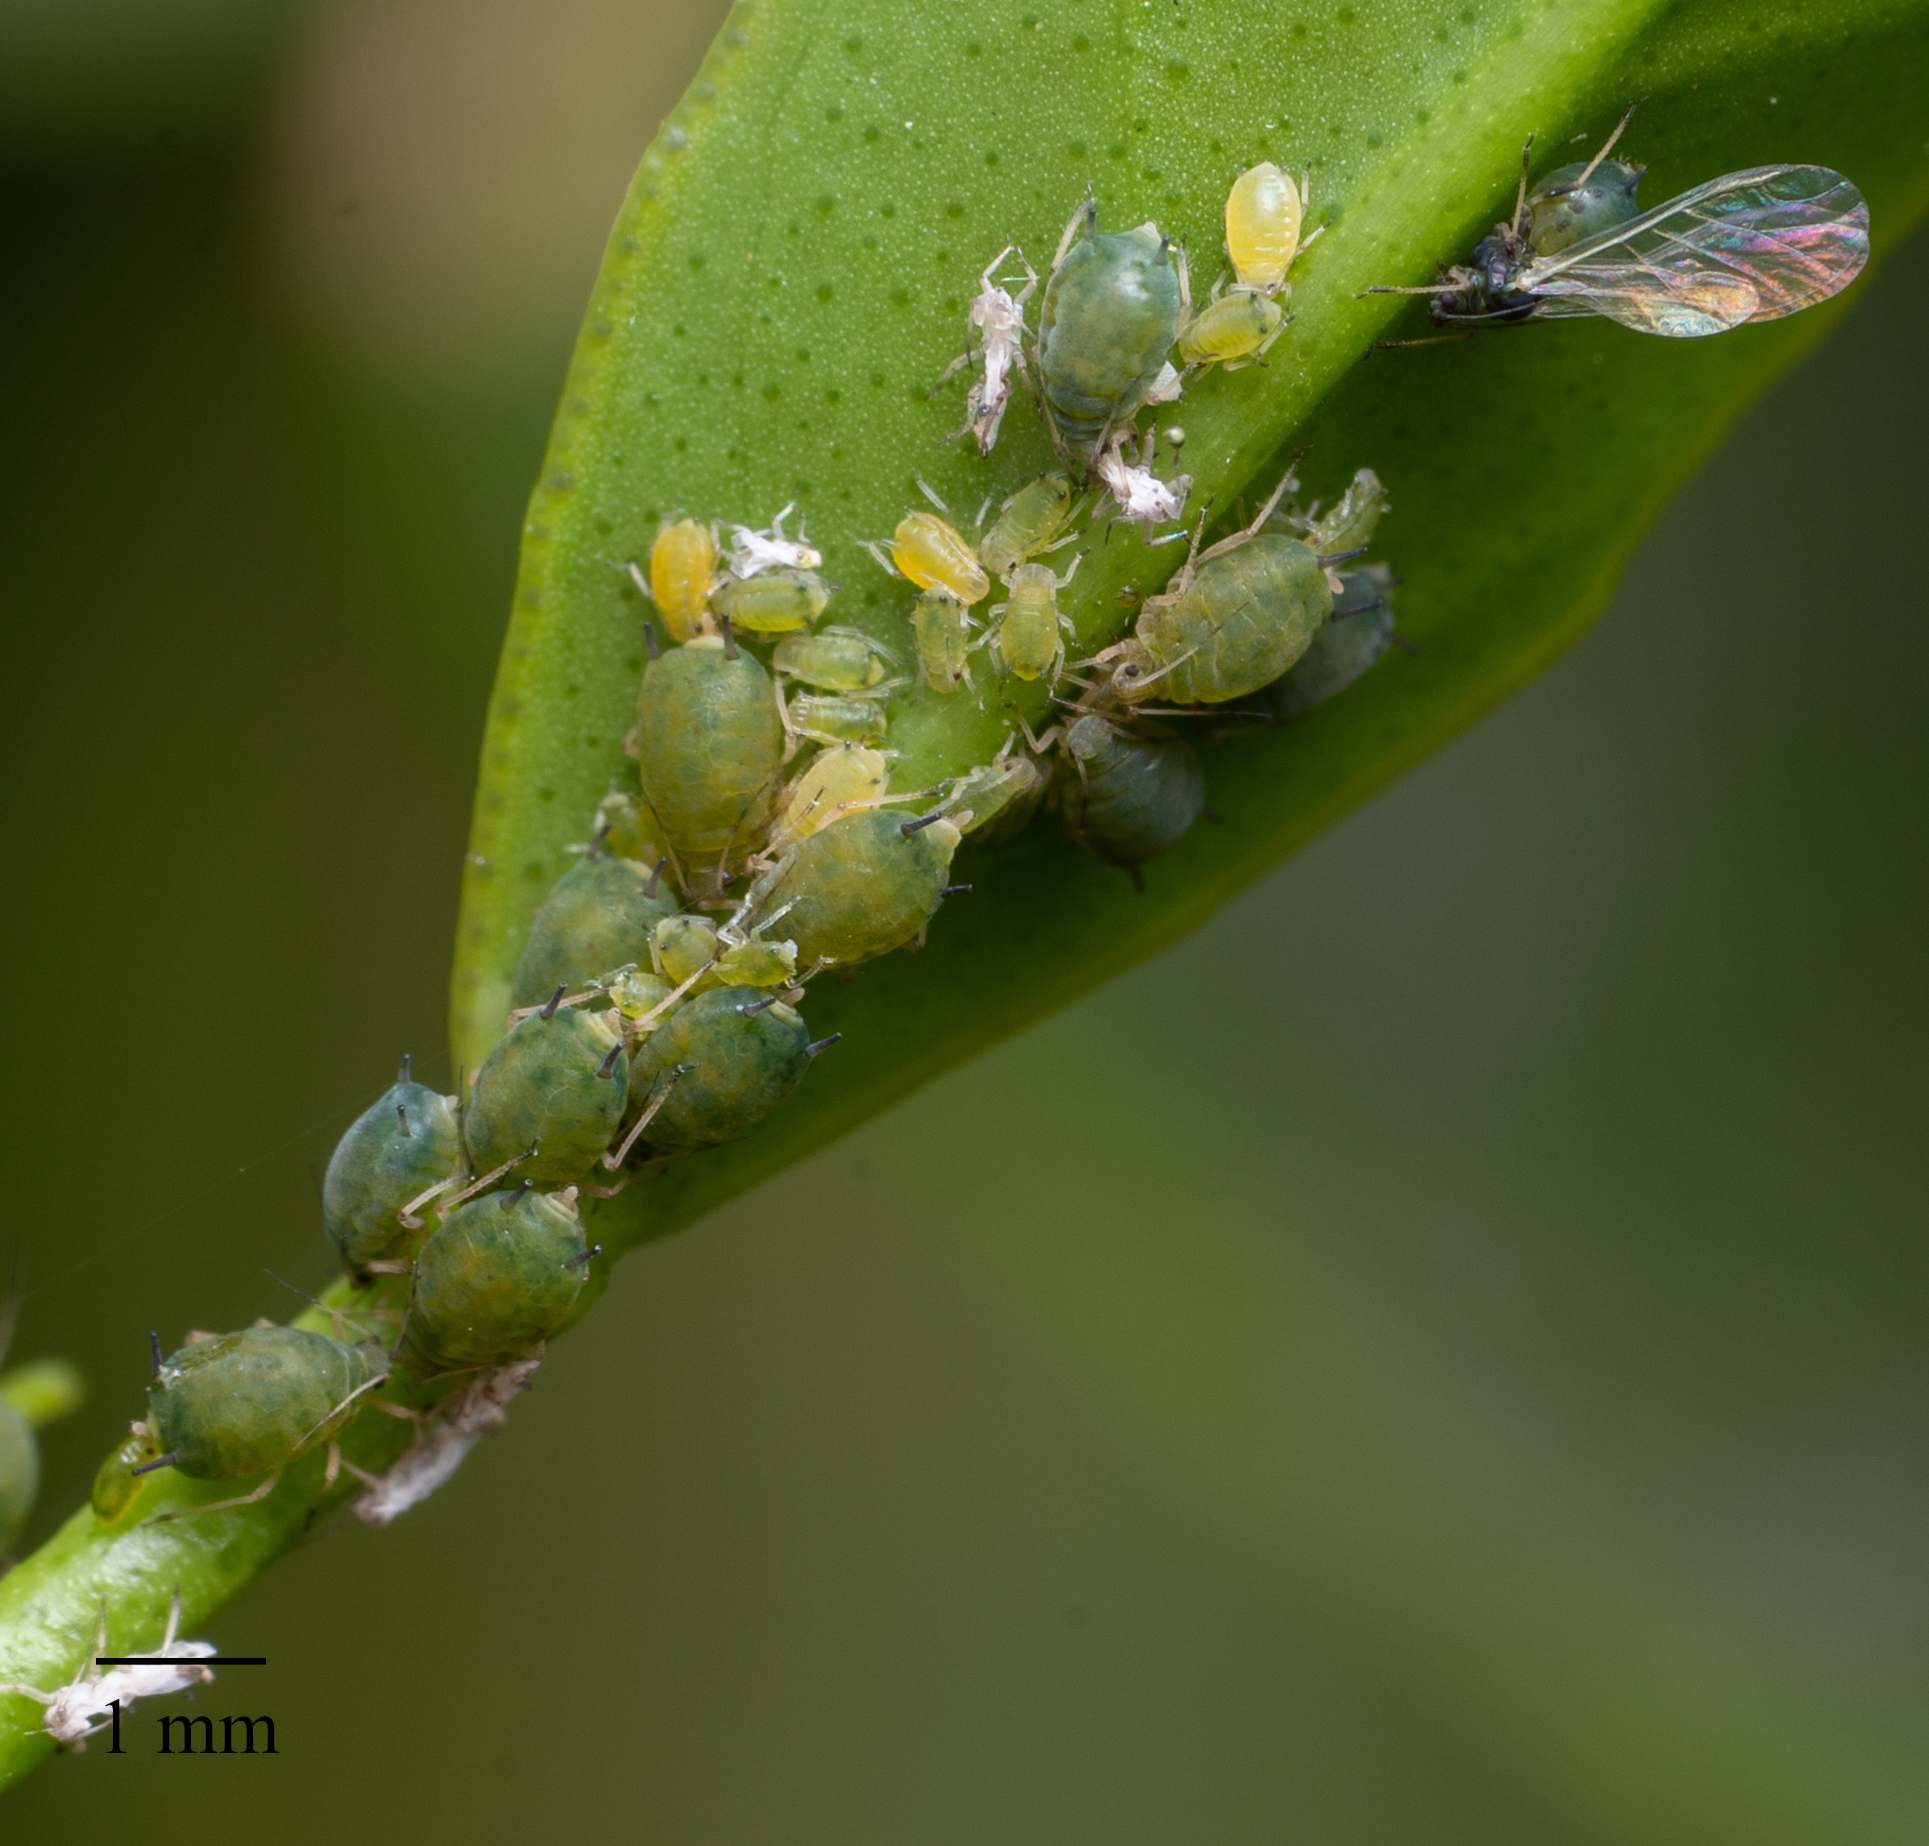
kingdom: Animalia
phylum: Arthropoda
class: Insecta
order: Hemiptera
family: Aphididae
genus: Aphis
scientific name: Aphis gossypii
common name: Melon aphid
